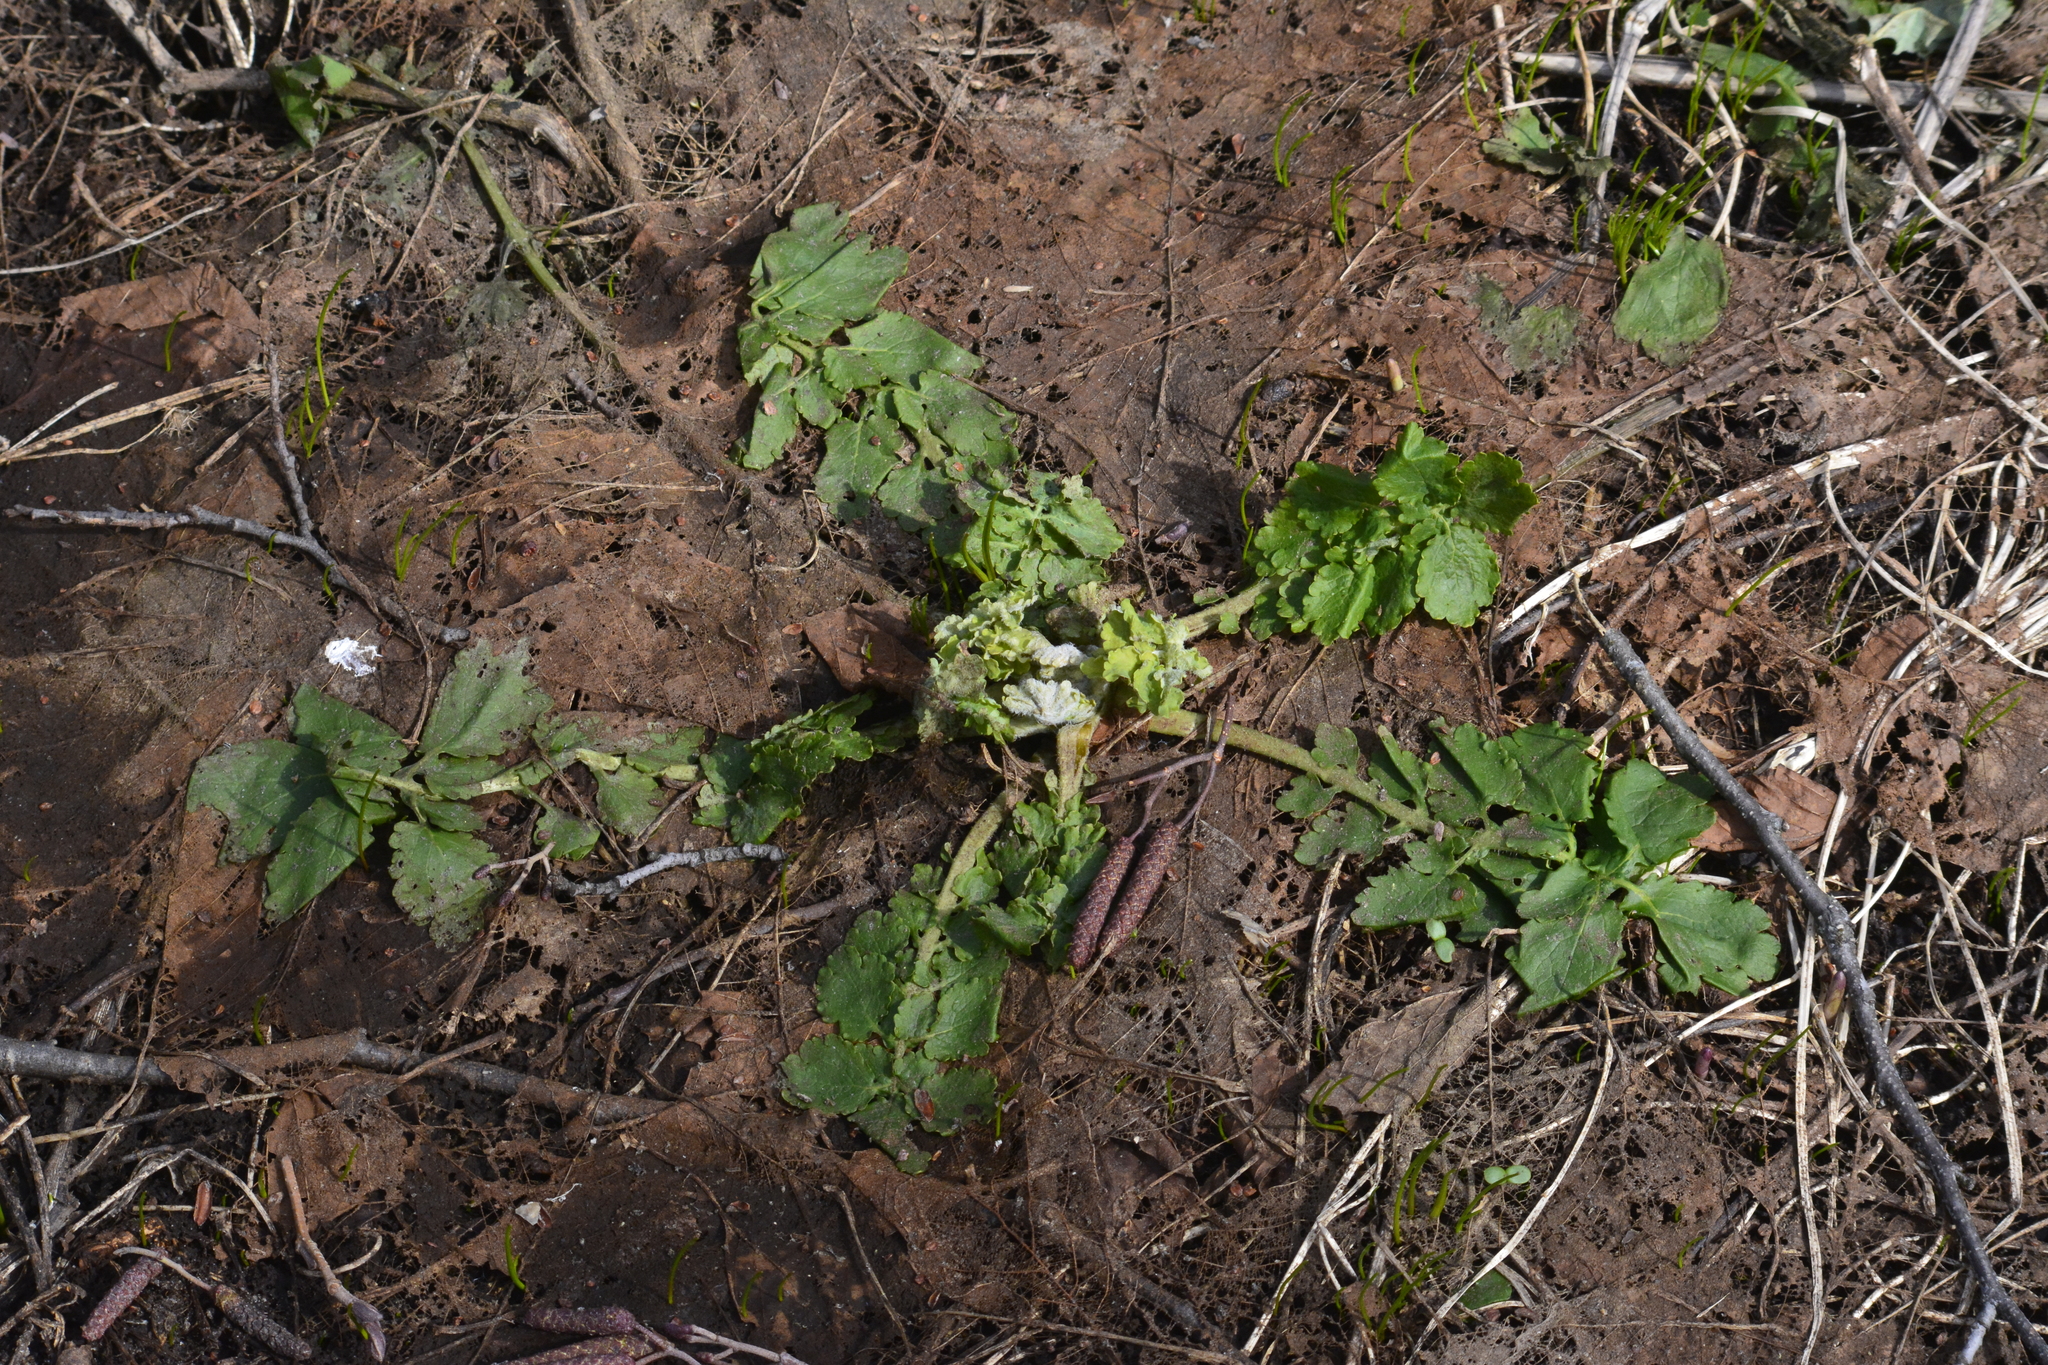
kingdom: Plantae
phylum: Tracheophyta
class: Magnoliopsida
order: Ranunculales
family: Papaveraceae
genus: Chelidonium
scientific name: Chelidonium majus
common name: Greater celandine
